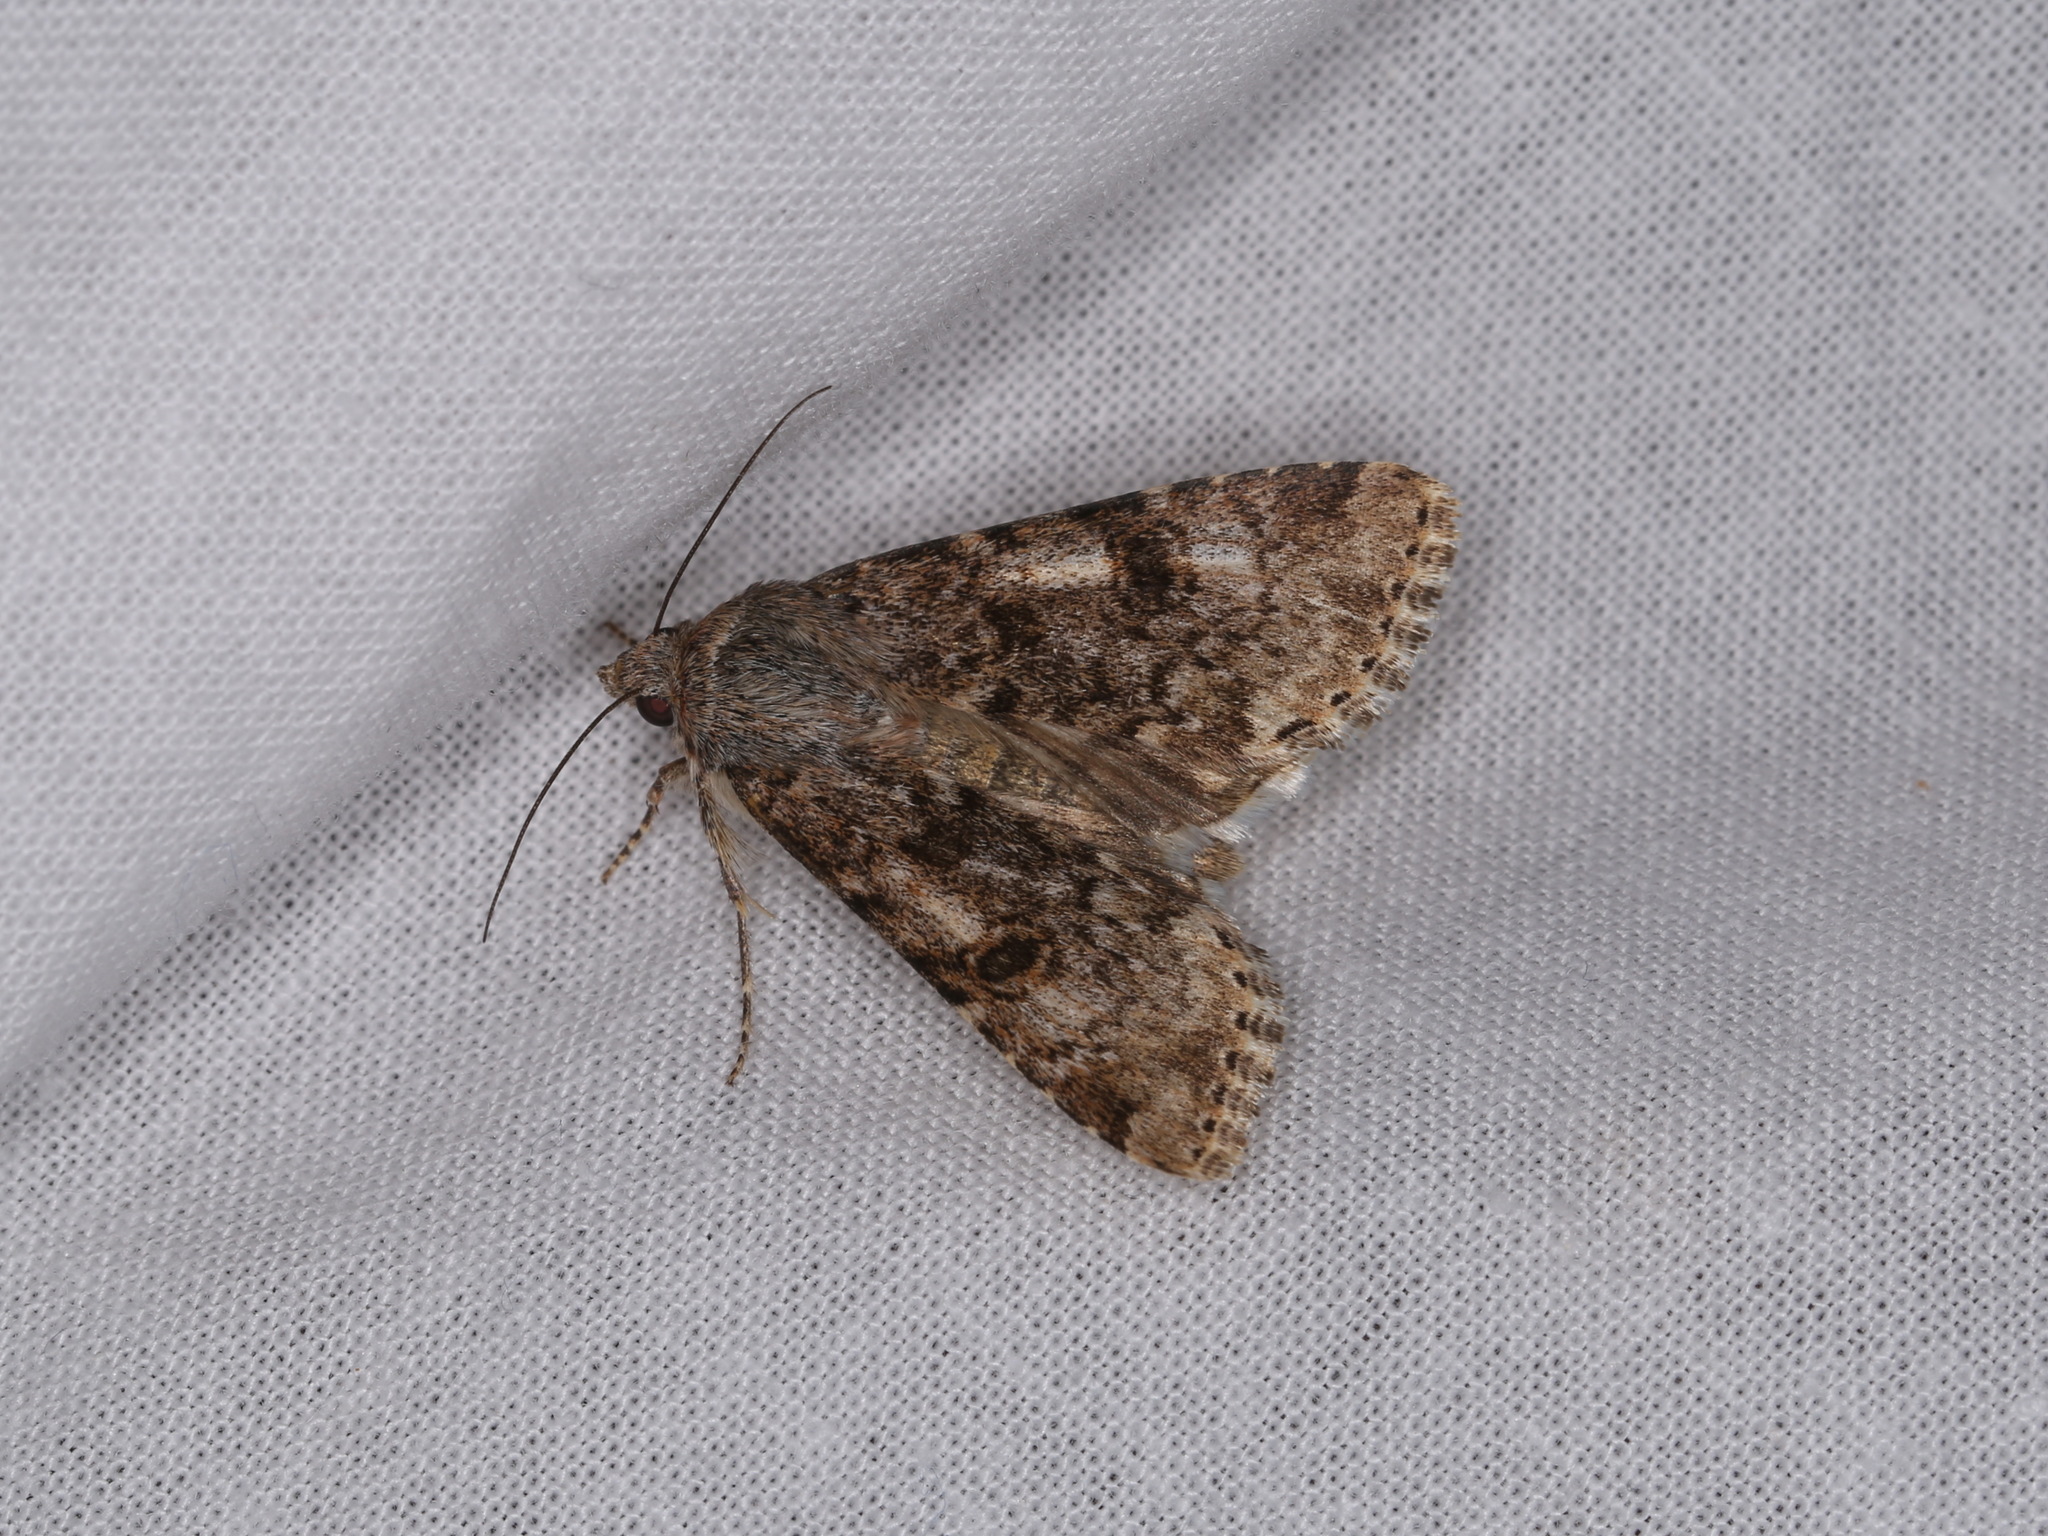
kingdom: Animalia
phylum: Arthropoda
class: Insecta
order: Lepidoptera
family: Noctuidae
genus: Heliothis
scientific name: Heliothis punctifera
